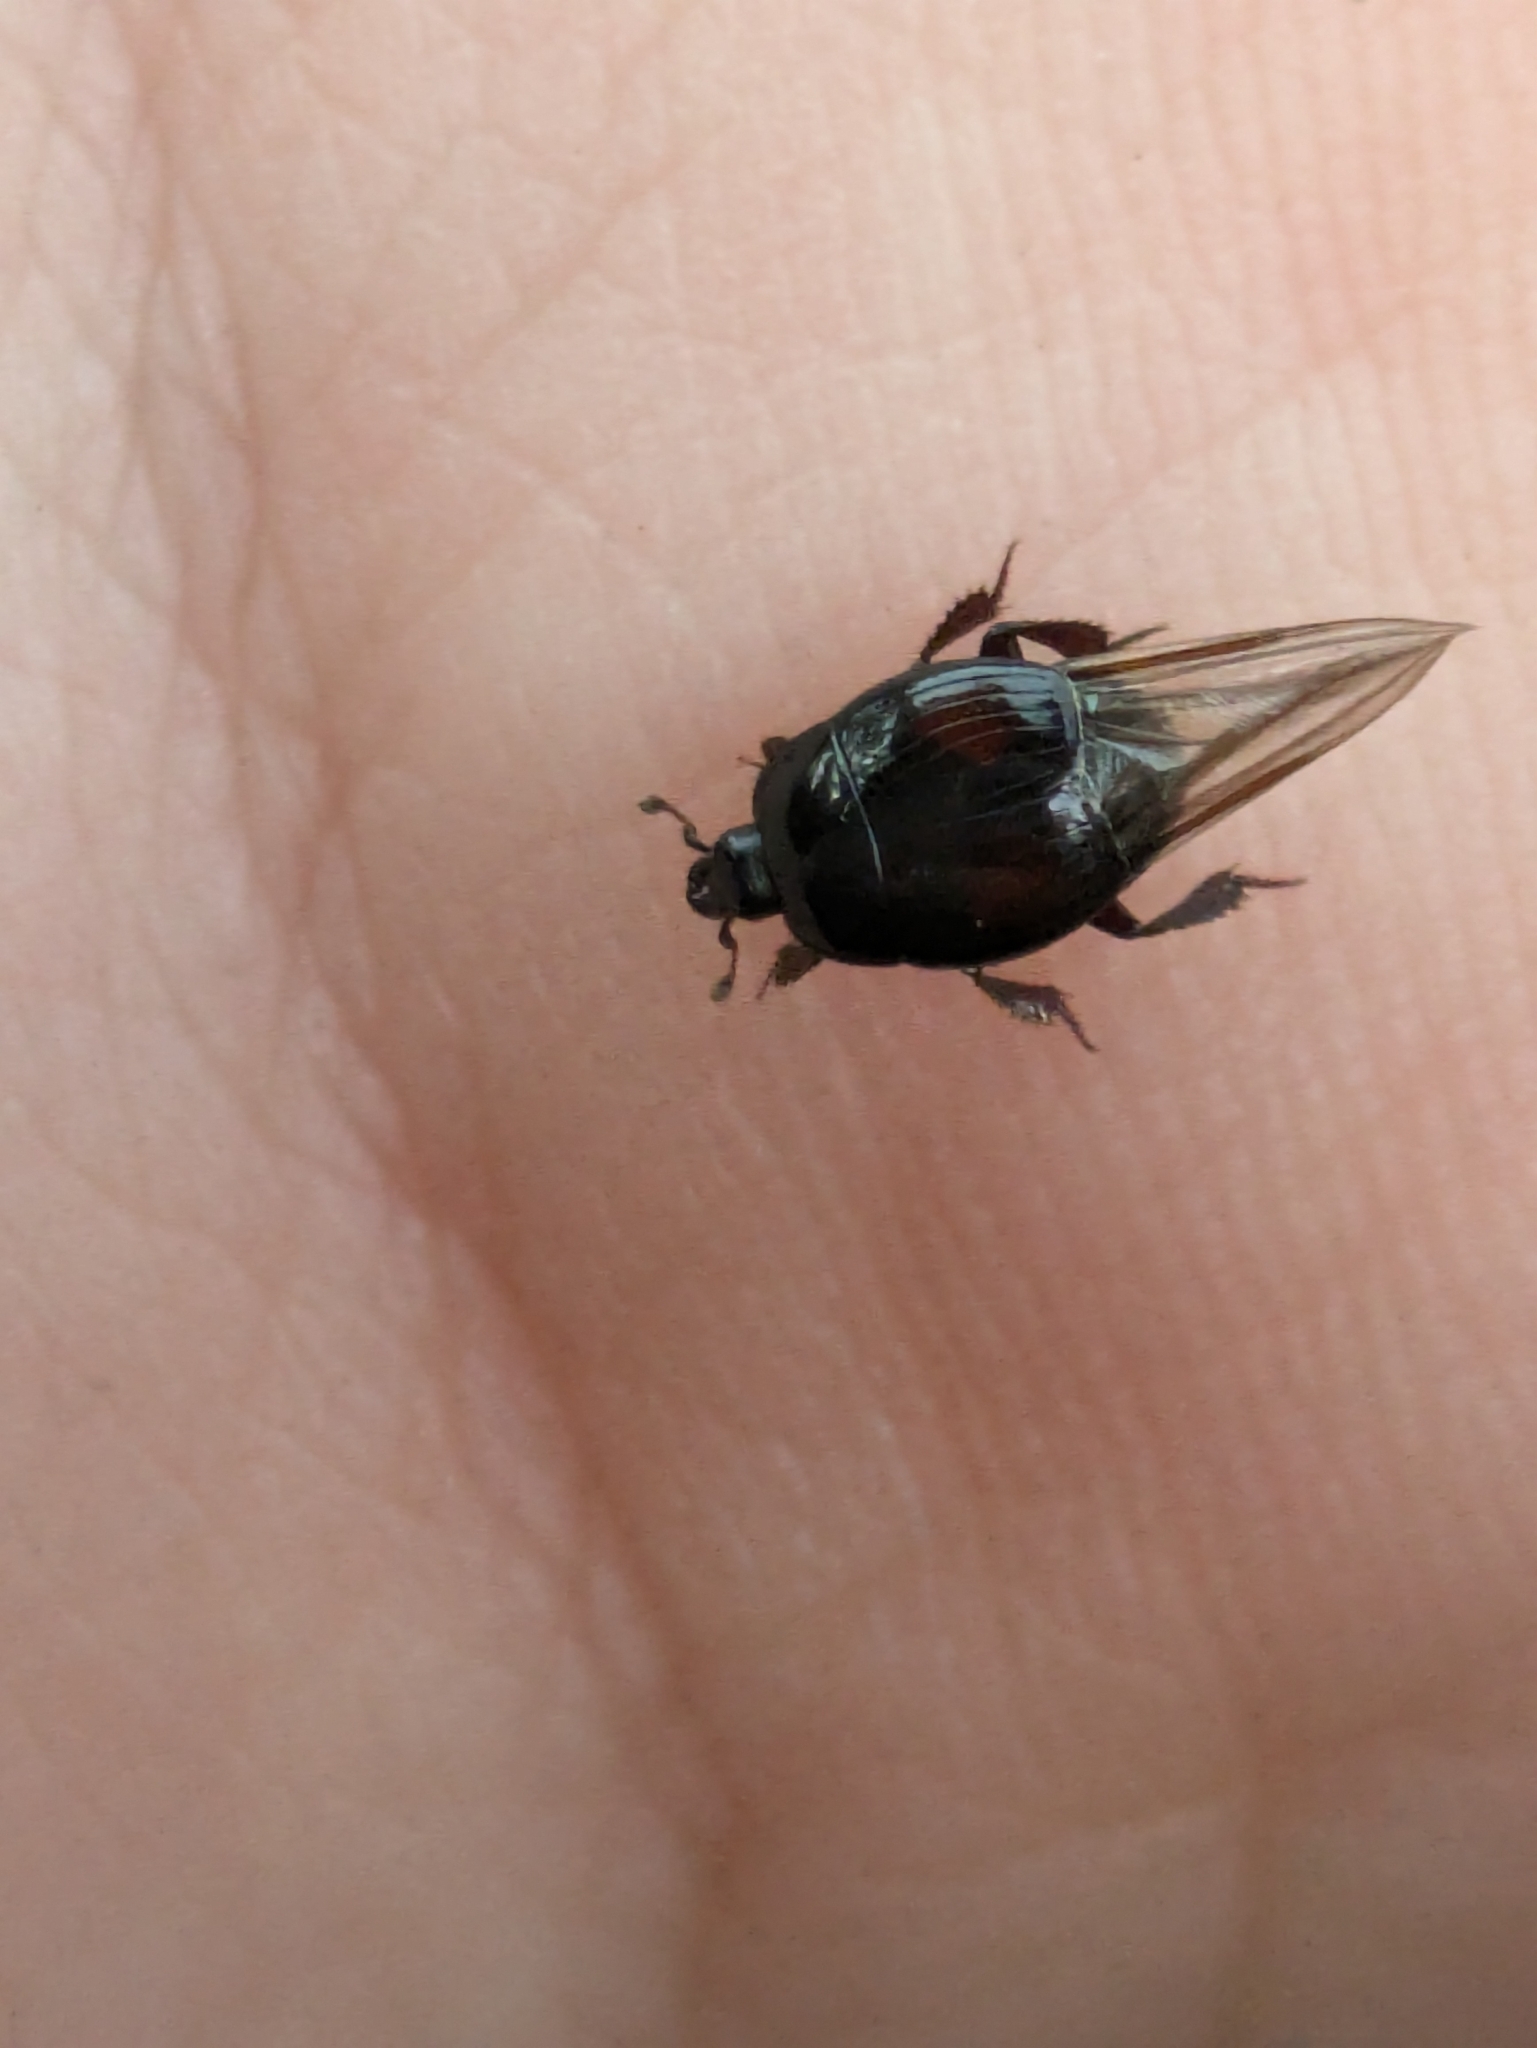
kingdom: Animalia
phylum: Arthropoda
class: Insecta
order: Coleoptera
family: Histeridae
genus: Margarinotus
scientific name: Margarinotus purpurascens
